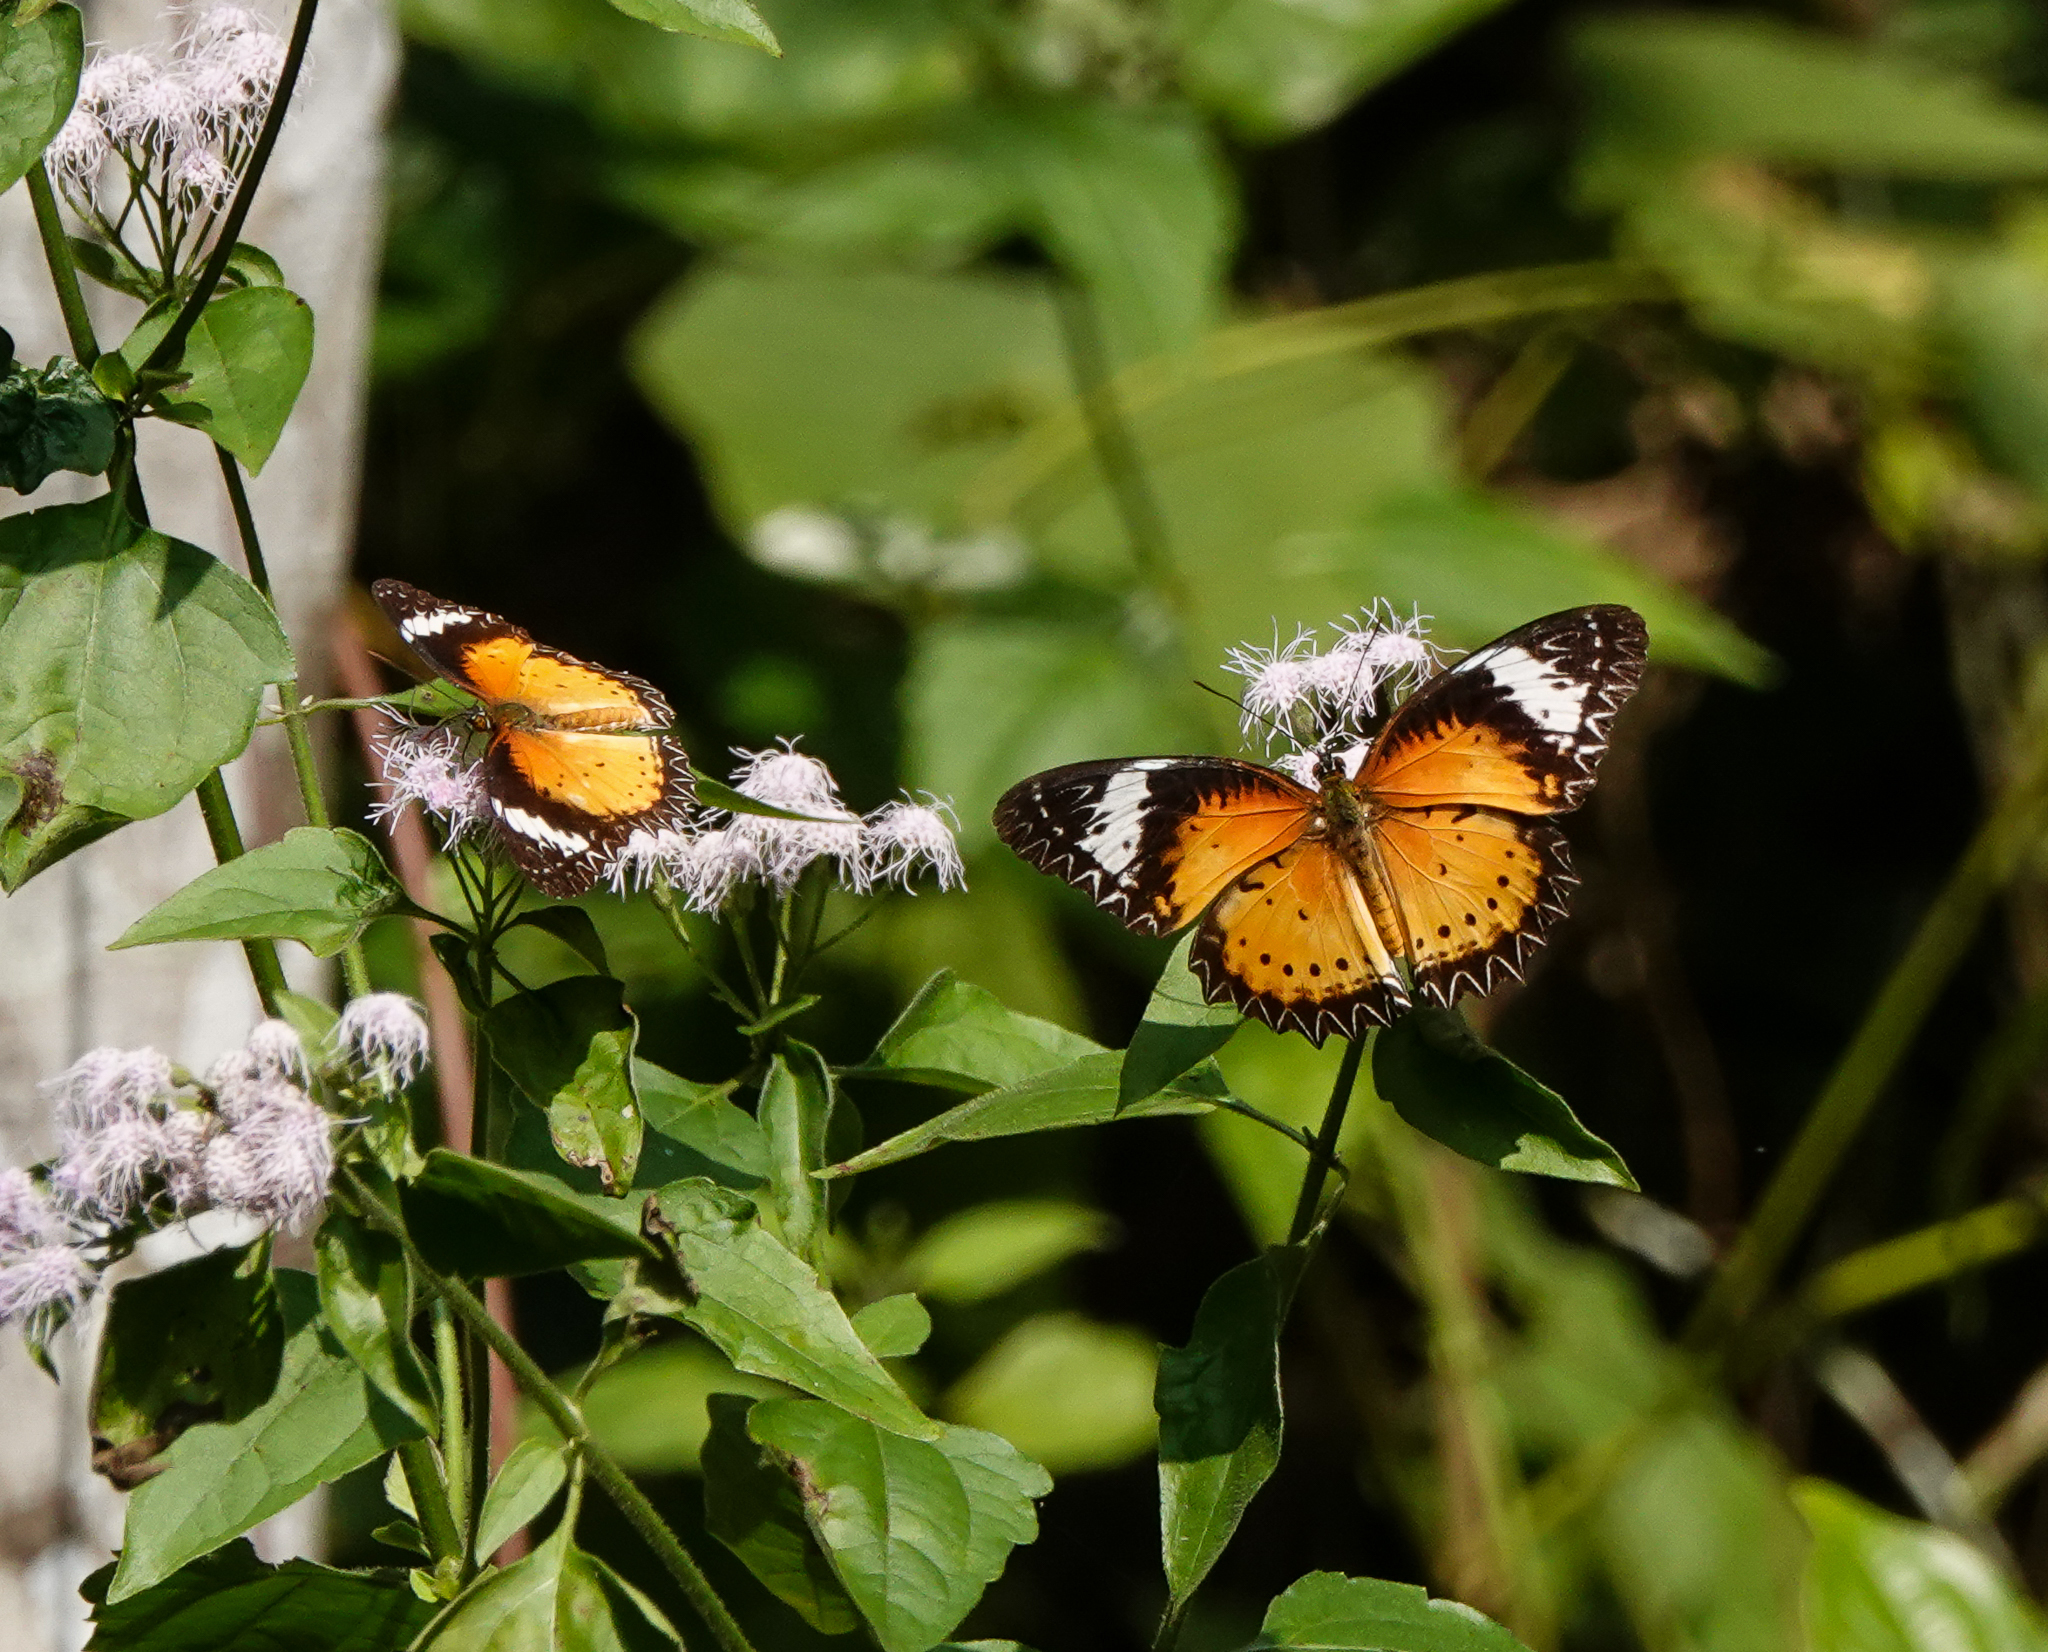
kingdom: Animalia
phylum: Arthropoda
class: Insecta
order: Lepidoptera
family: Nymphalidae
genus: Cethosia
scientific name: Cethosia cyane
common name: Leopard lacewing butterfly
